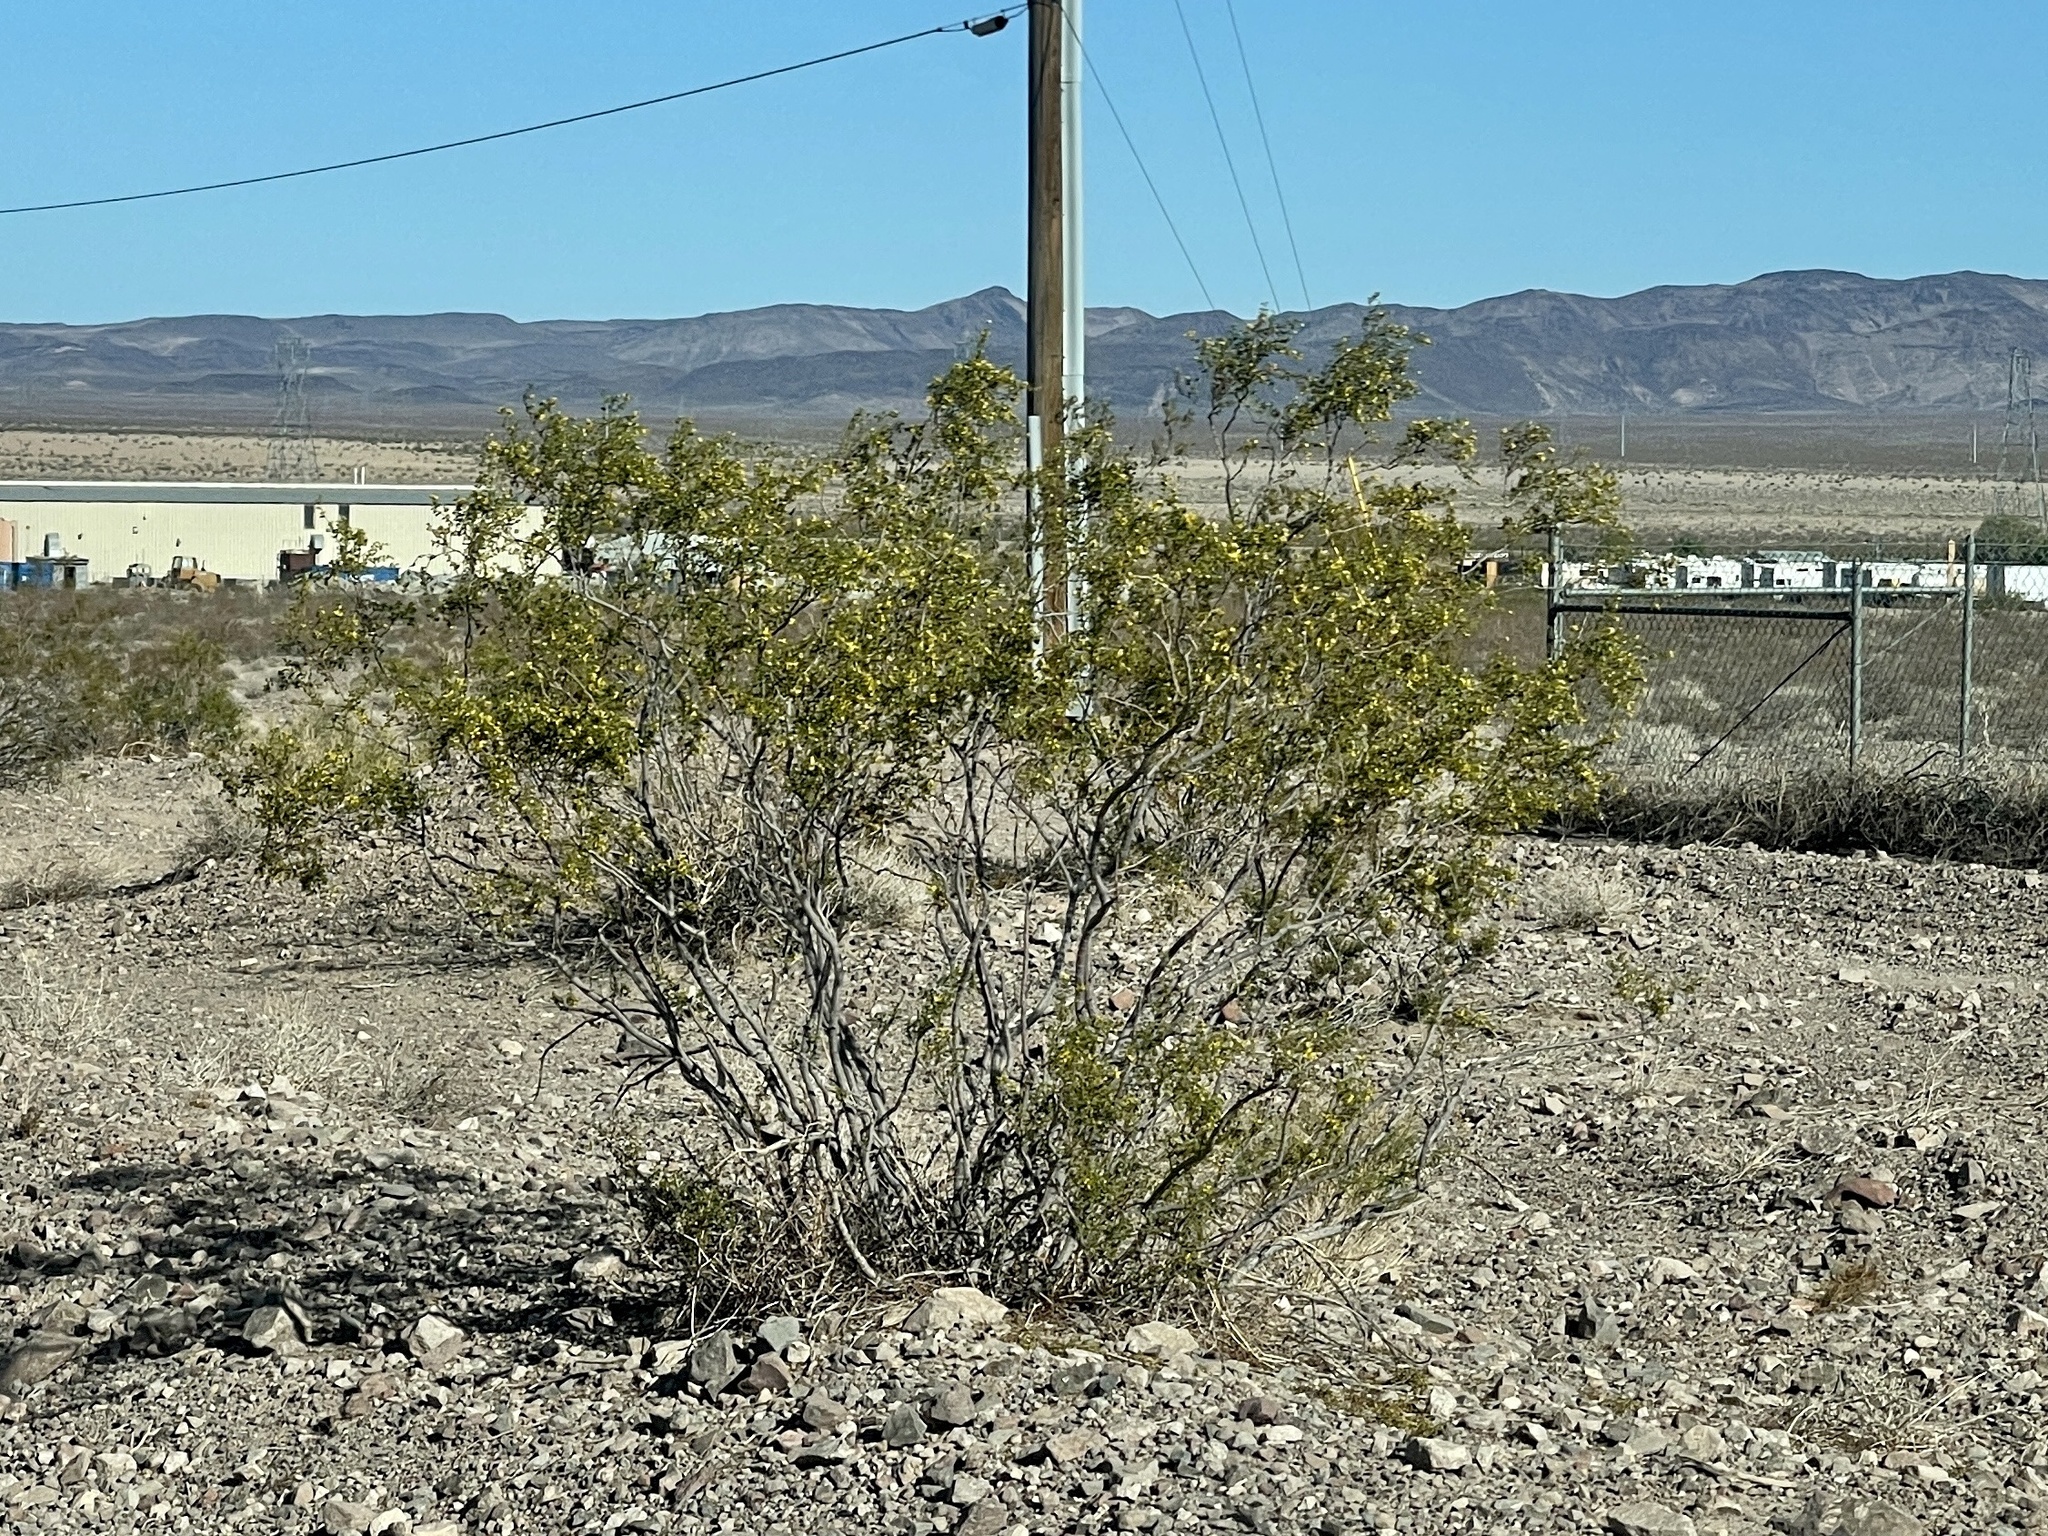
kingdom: Plantae
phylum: Tracheophyta
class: Magnoliopsida
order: Zygophyllales
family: Zygophyllaceae
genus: Larrea
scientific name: Larrea tridentata
